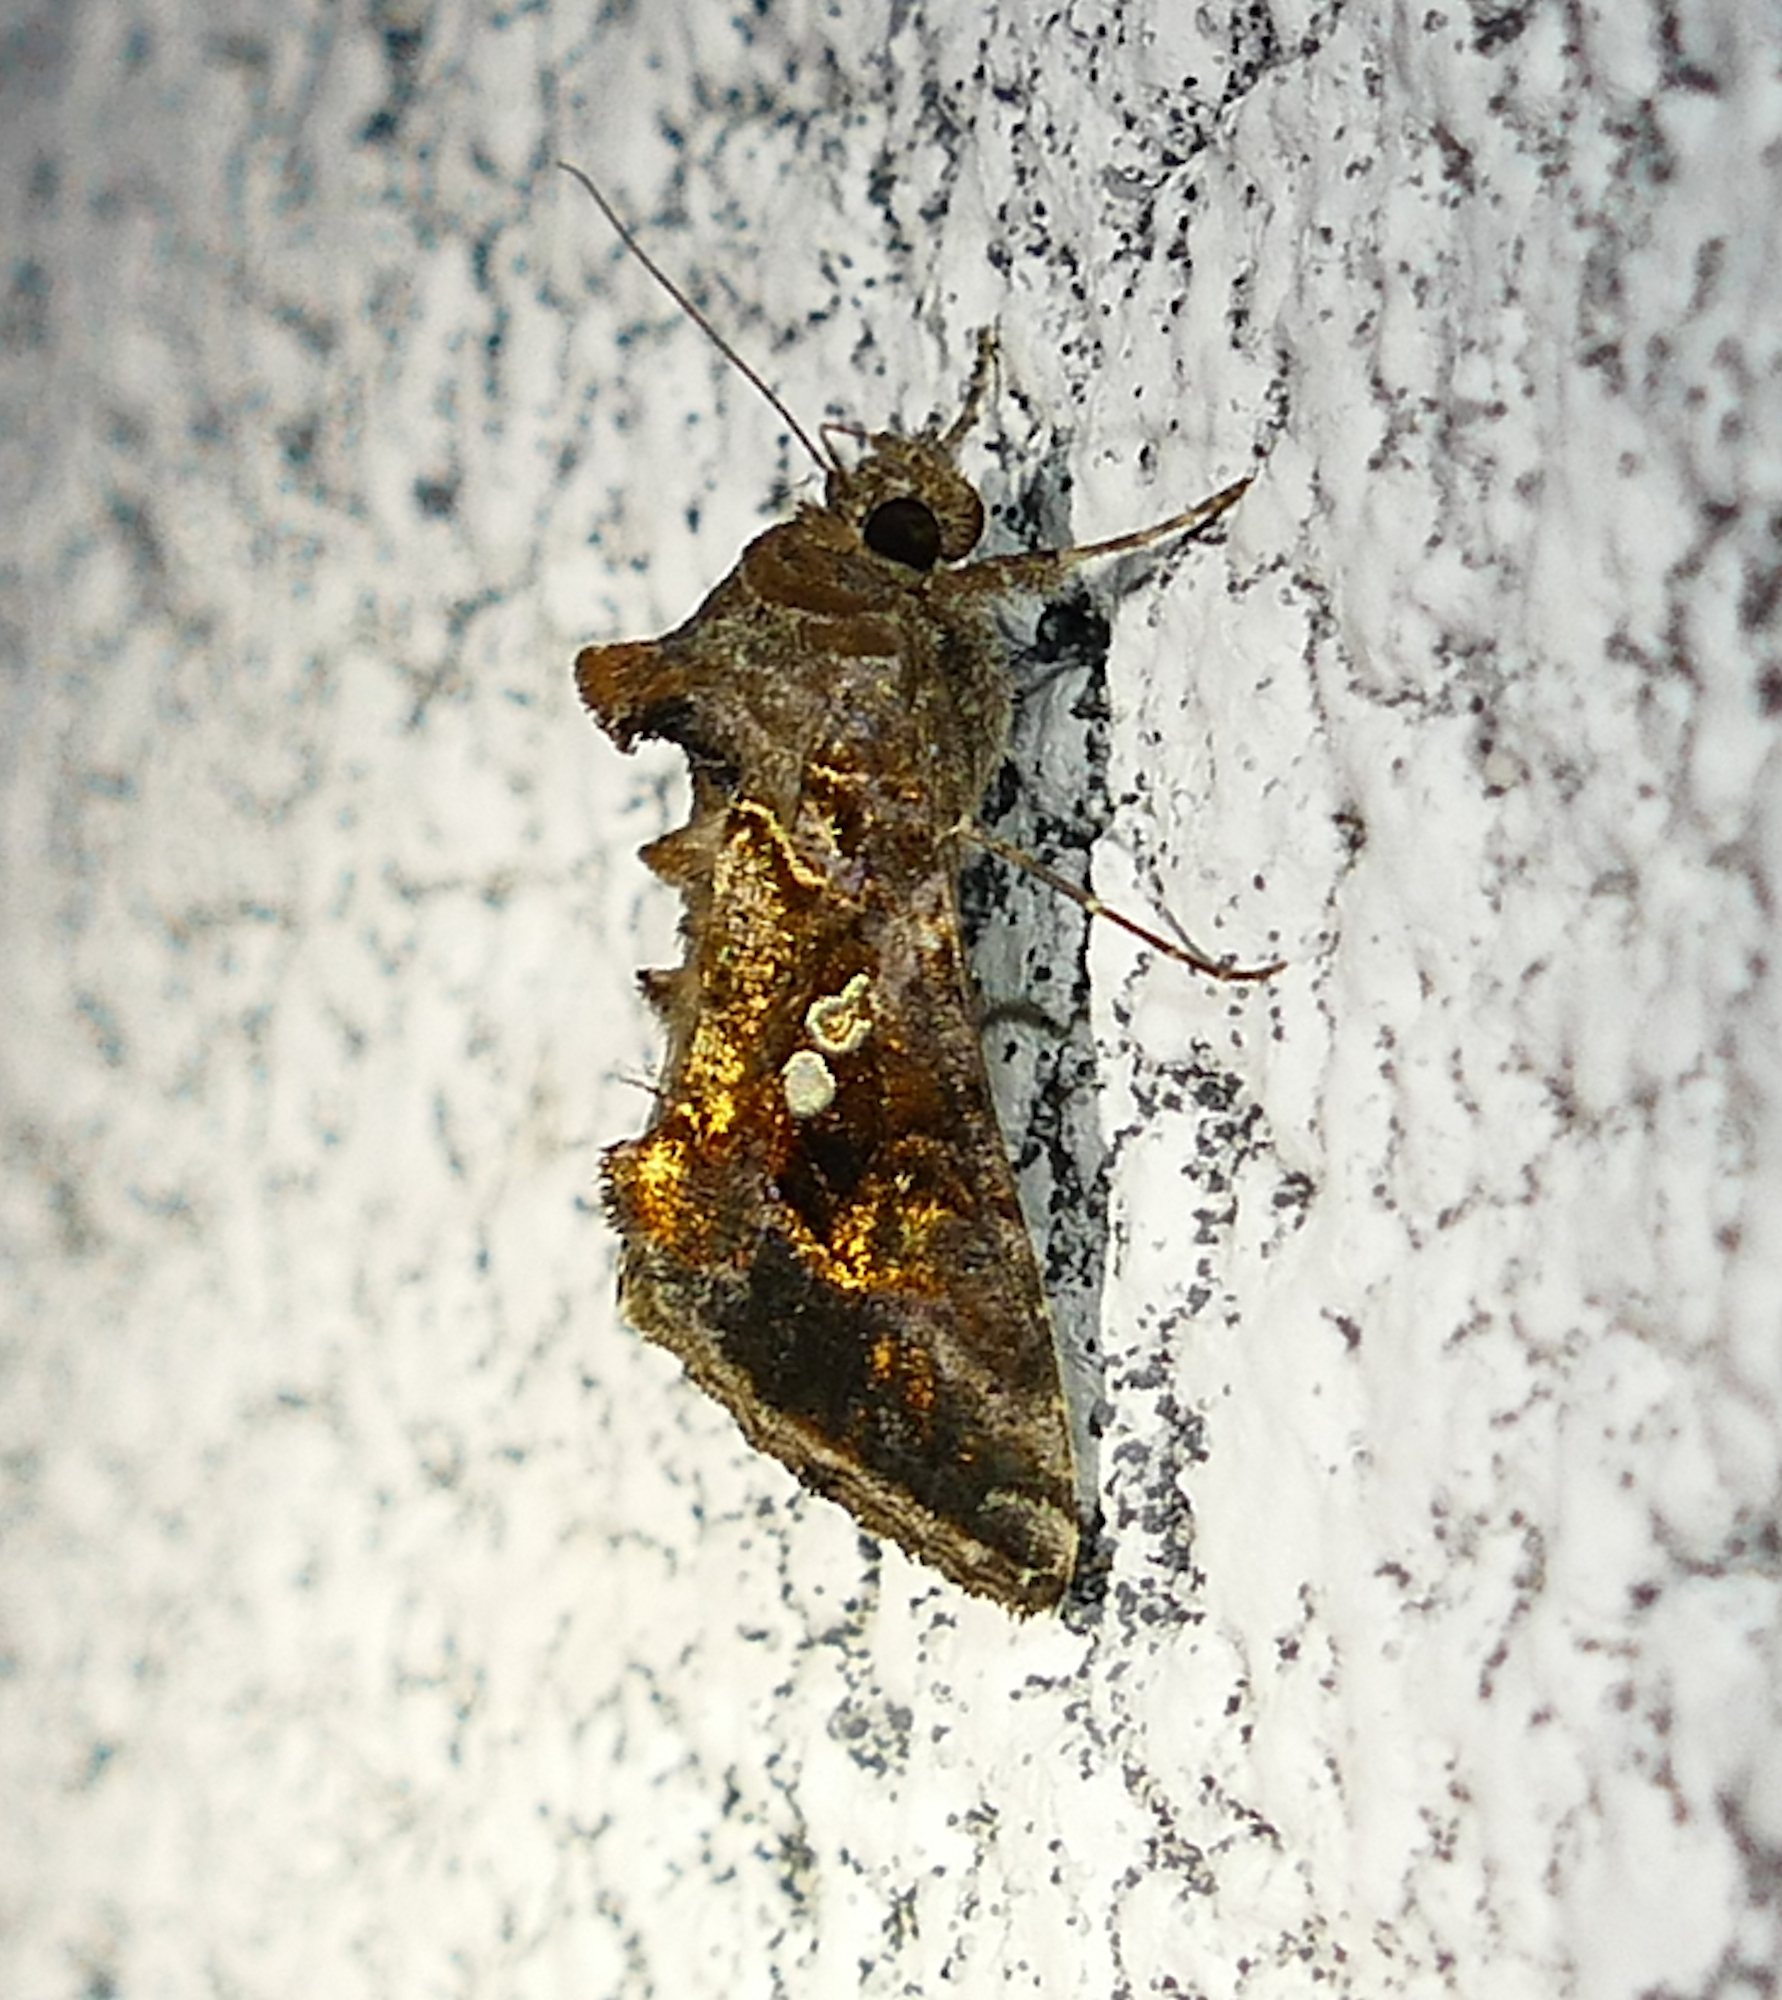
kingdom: Animalia
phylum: Arthropoda
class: Insecta
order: Lepidoptera
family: Noctuidae
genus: Chrysodeixis
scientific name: Chrysodeixis includens
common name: Cutworm moth
